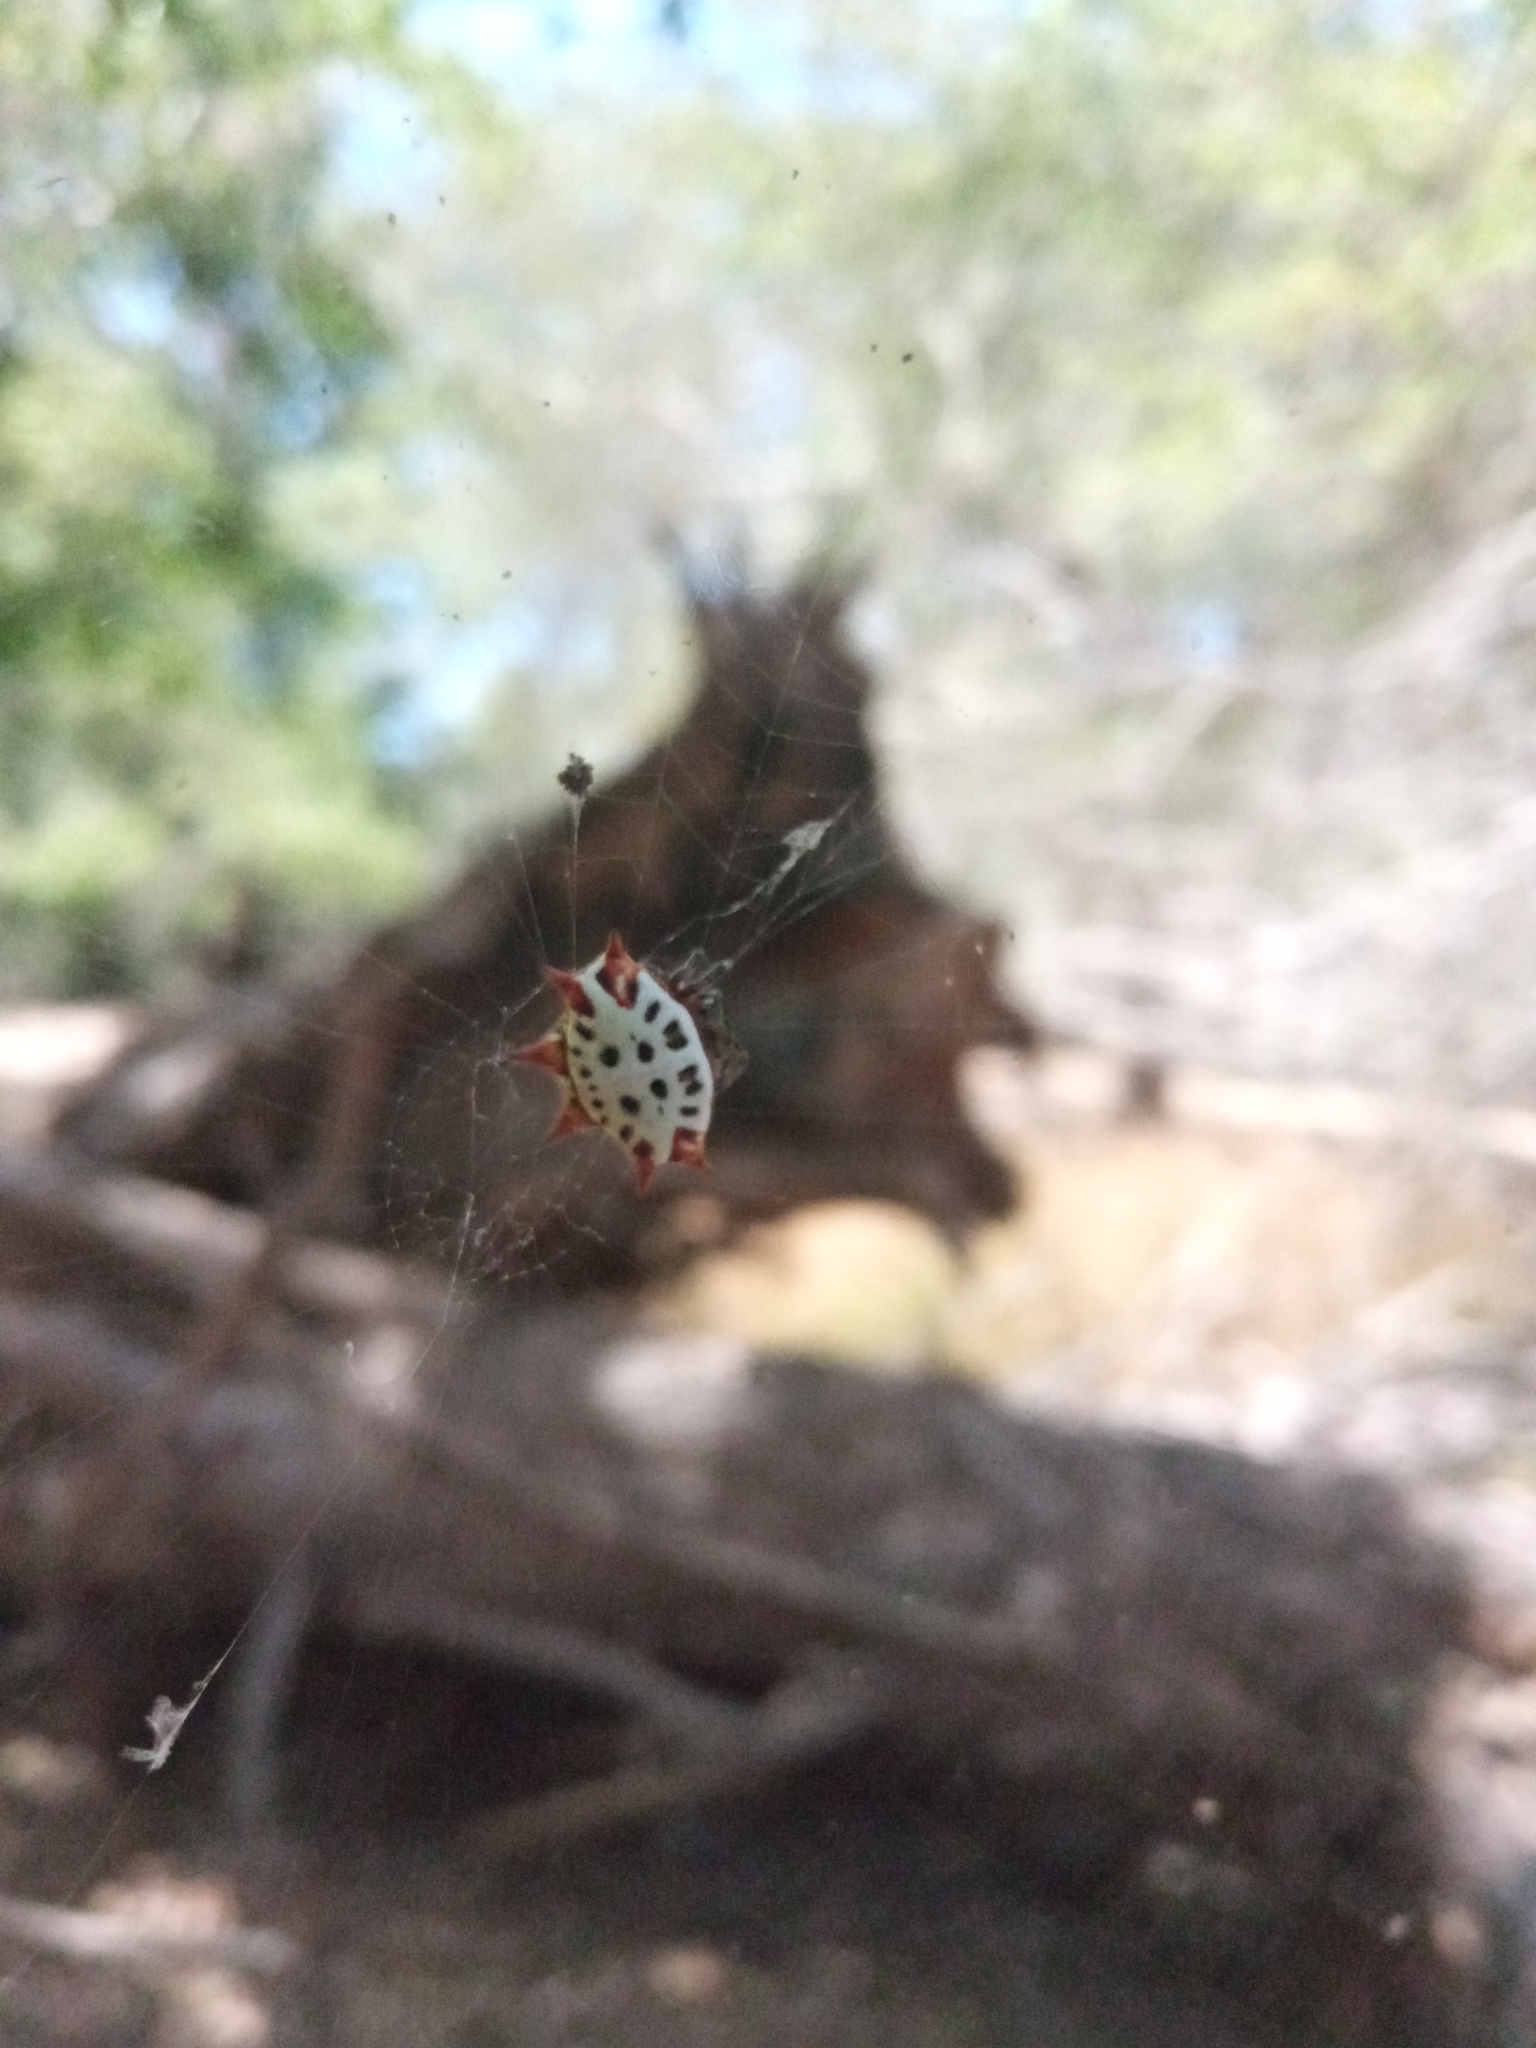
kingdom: Animalia
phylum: Arthropoda
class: Arachnida
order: Araneae
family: Araneidae
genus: Gasteracantha
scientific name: Gasteracantha cancriformis
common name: Orb weavers
